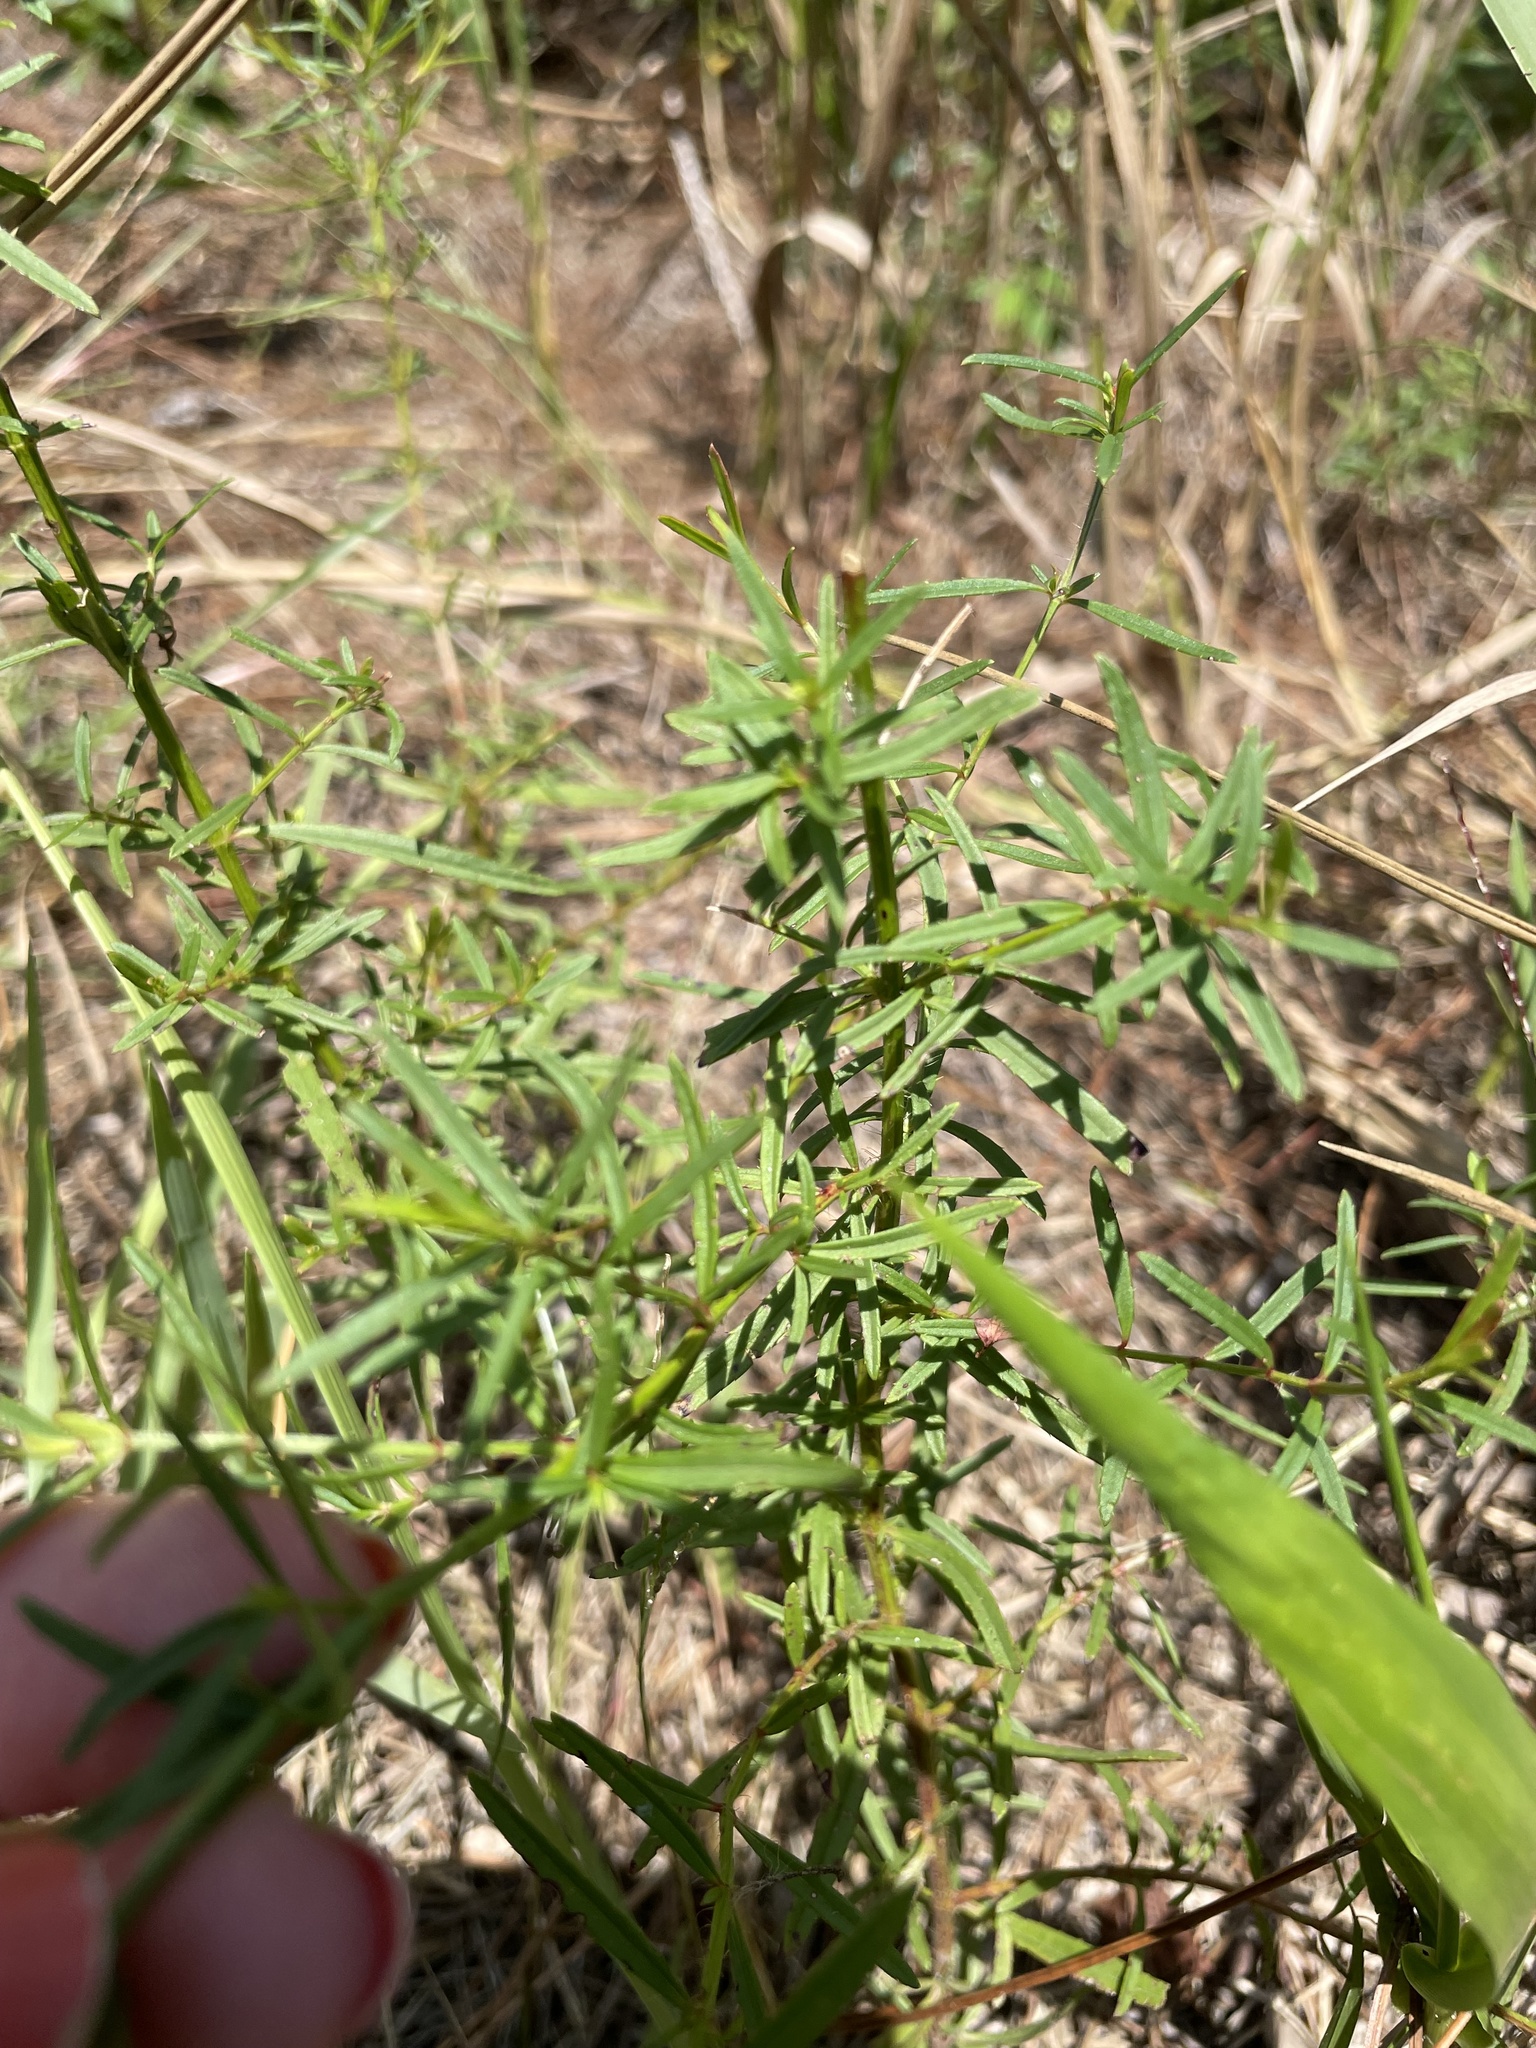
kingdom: Plantae
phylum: Tracheophyta
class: Magnoliopsida
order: Myrtales
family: Melastomataceae
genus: Rhexia
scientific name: Rhexia cubensis
